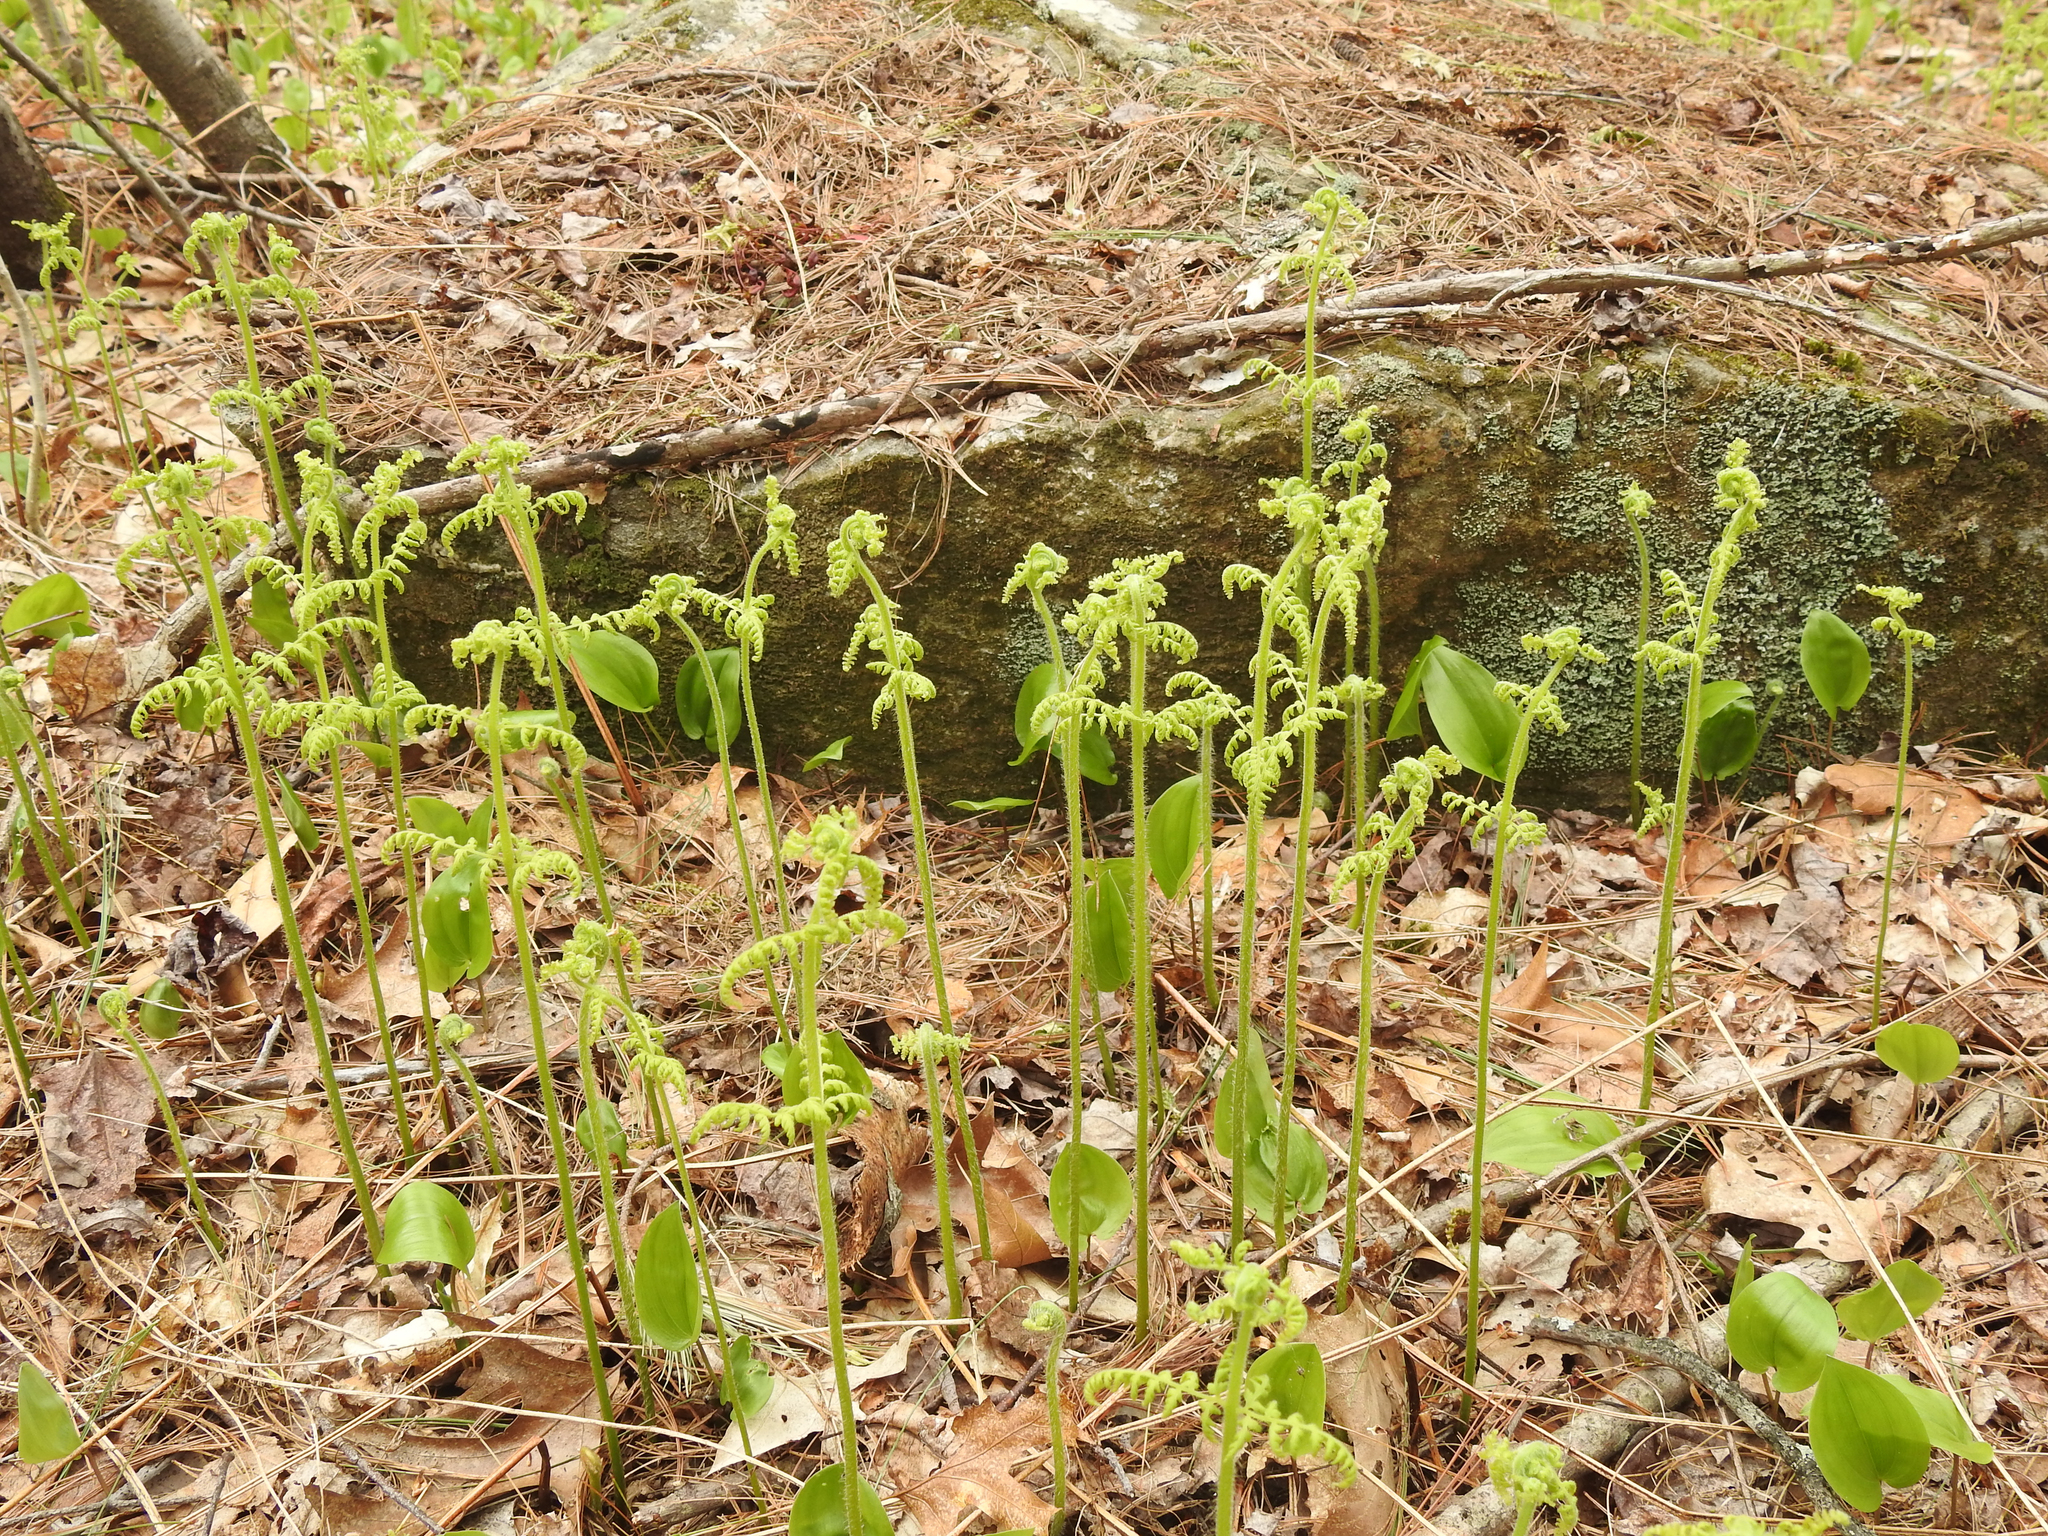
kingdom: Plantae
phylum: Tracheophyta
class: Polypodiopsida
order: Polypodiales
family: Dennstaedtiaceae
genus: Sitobolium
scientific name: Sitobolium punctilobum
